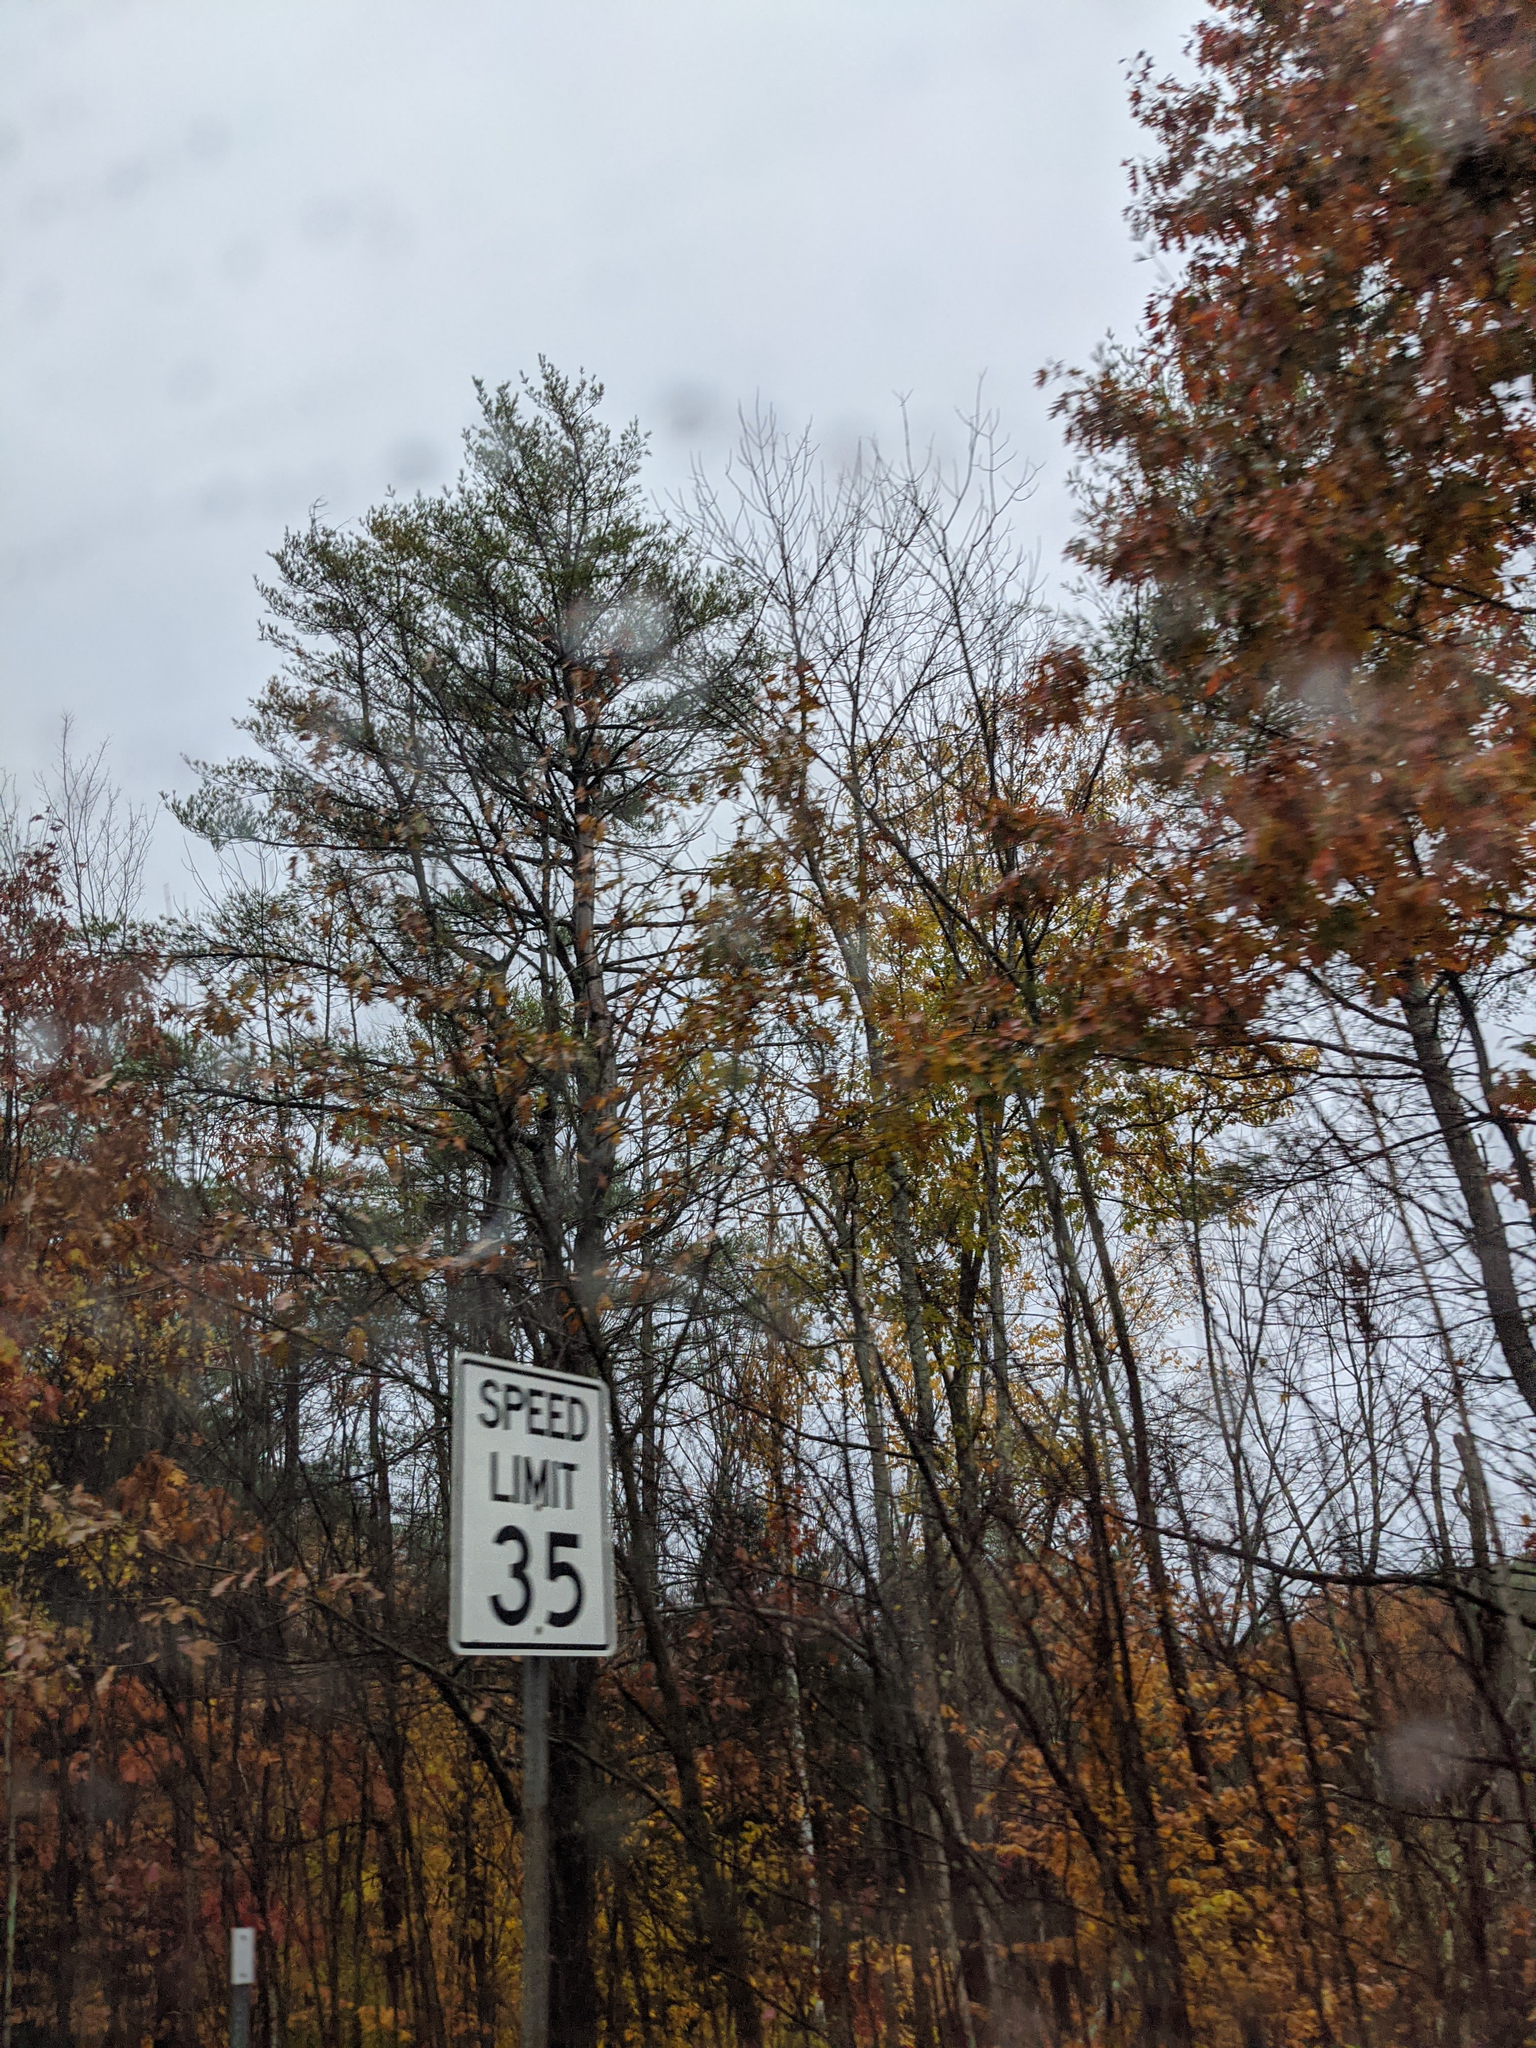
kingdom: Plantae
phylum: Tracheophyta
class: Pinopsida
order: Pinales
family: Pinaceae
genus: Pinus
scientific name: Pinus strobus
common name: Weymouth pine
